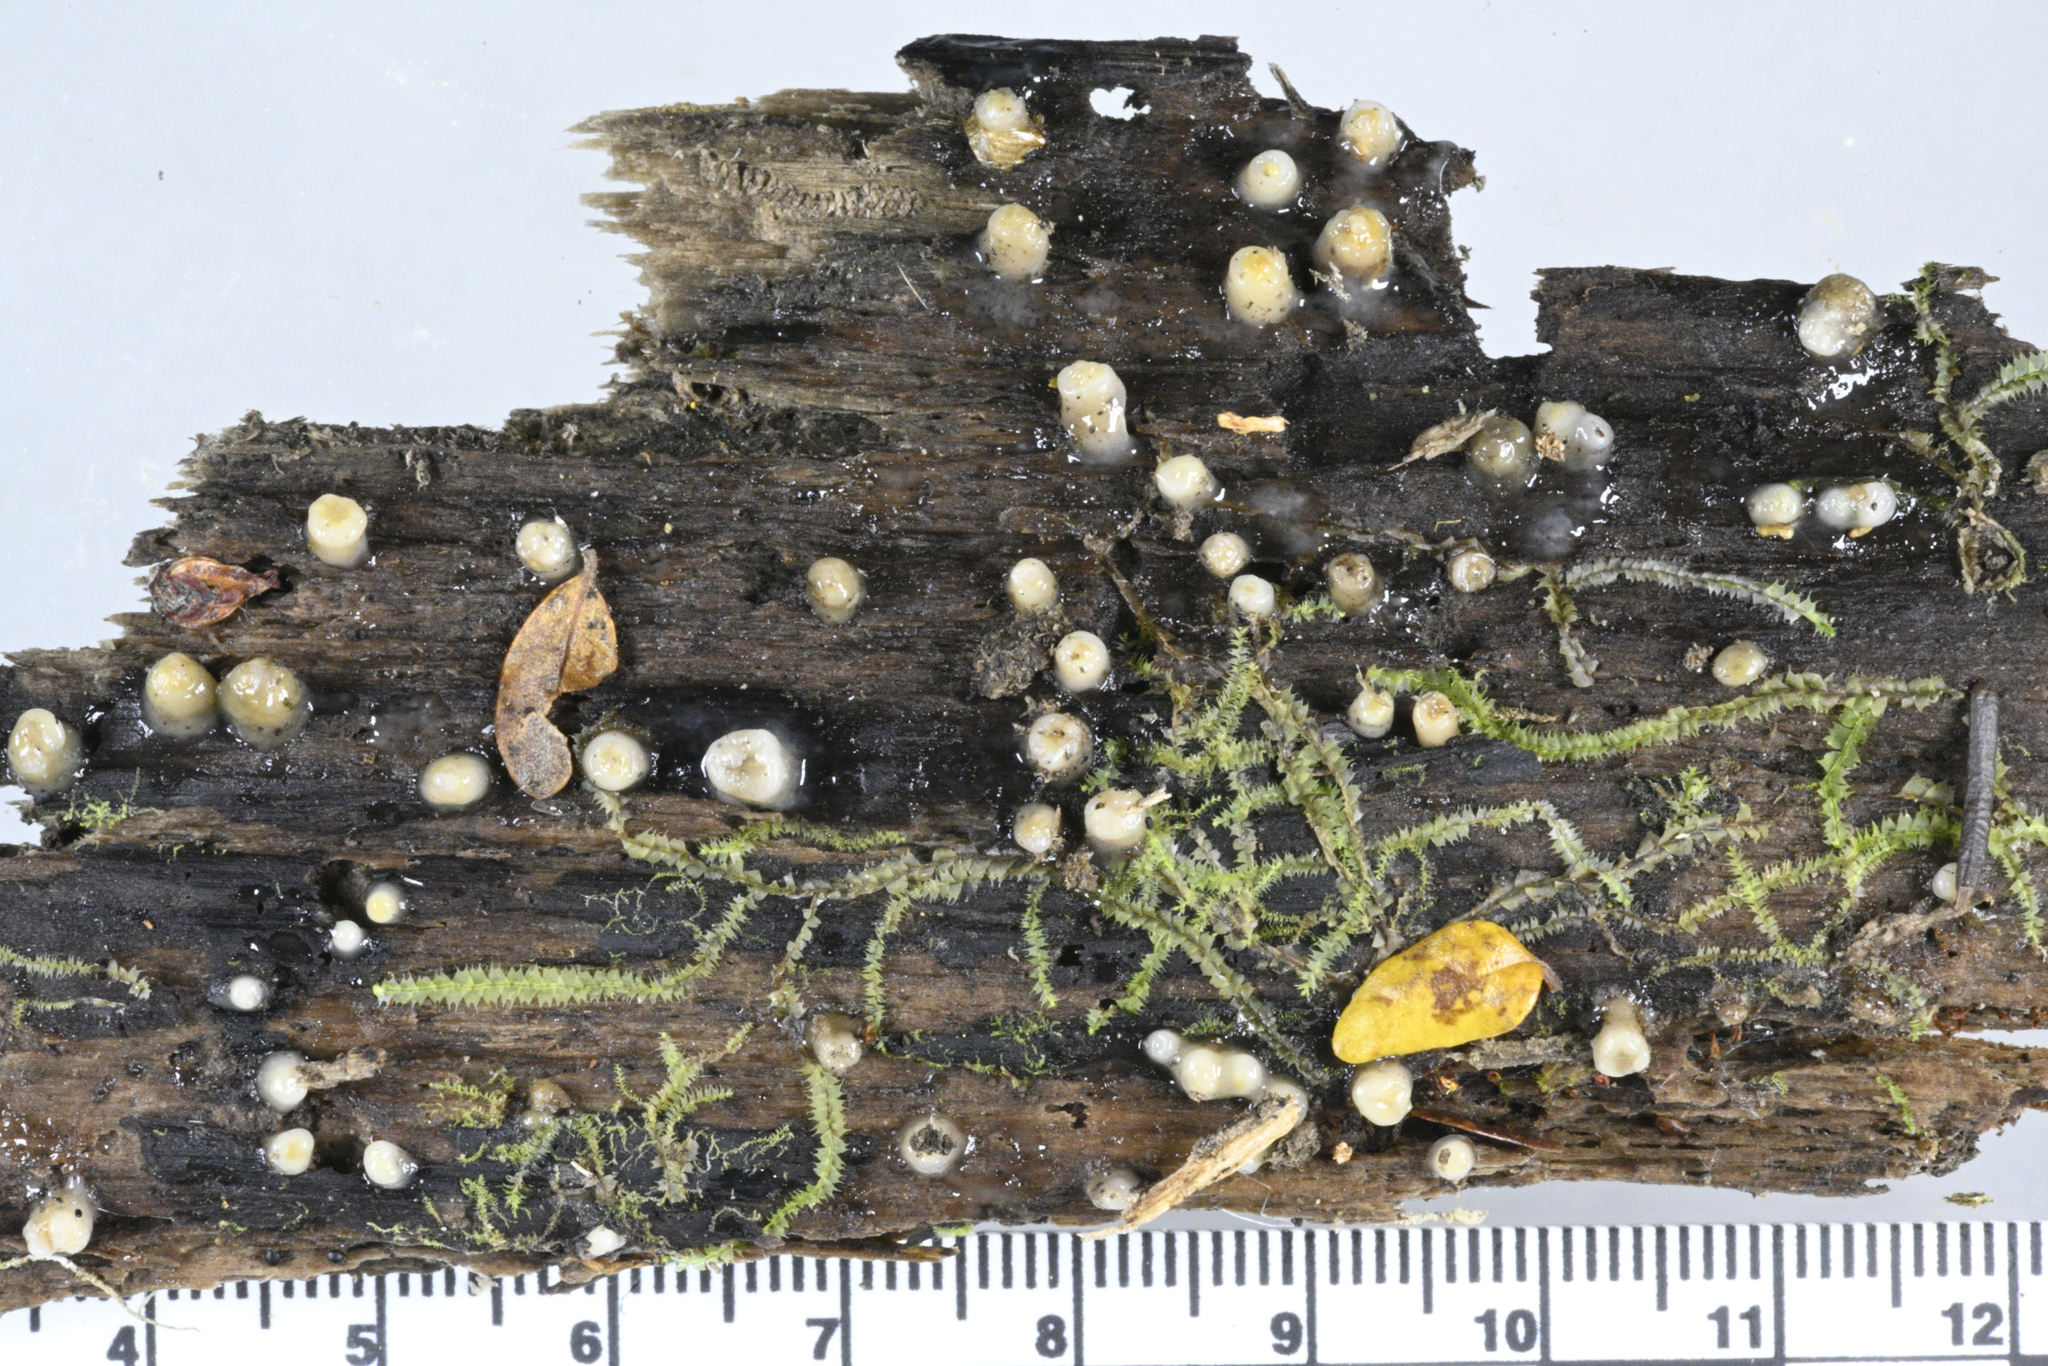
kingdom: Fungi
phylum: Basidiomycota
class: Atractiellomycetes
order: Atractiellales
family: Phleogenaceae
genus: Helicogloea
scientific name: Helicogloea compressa
